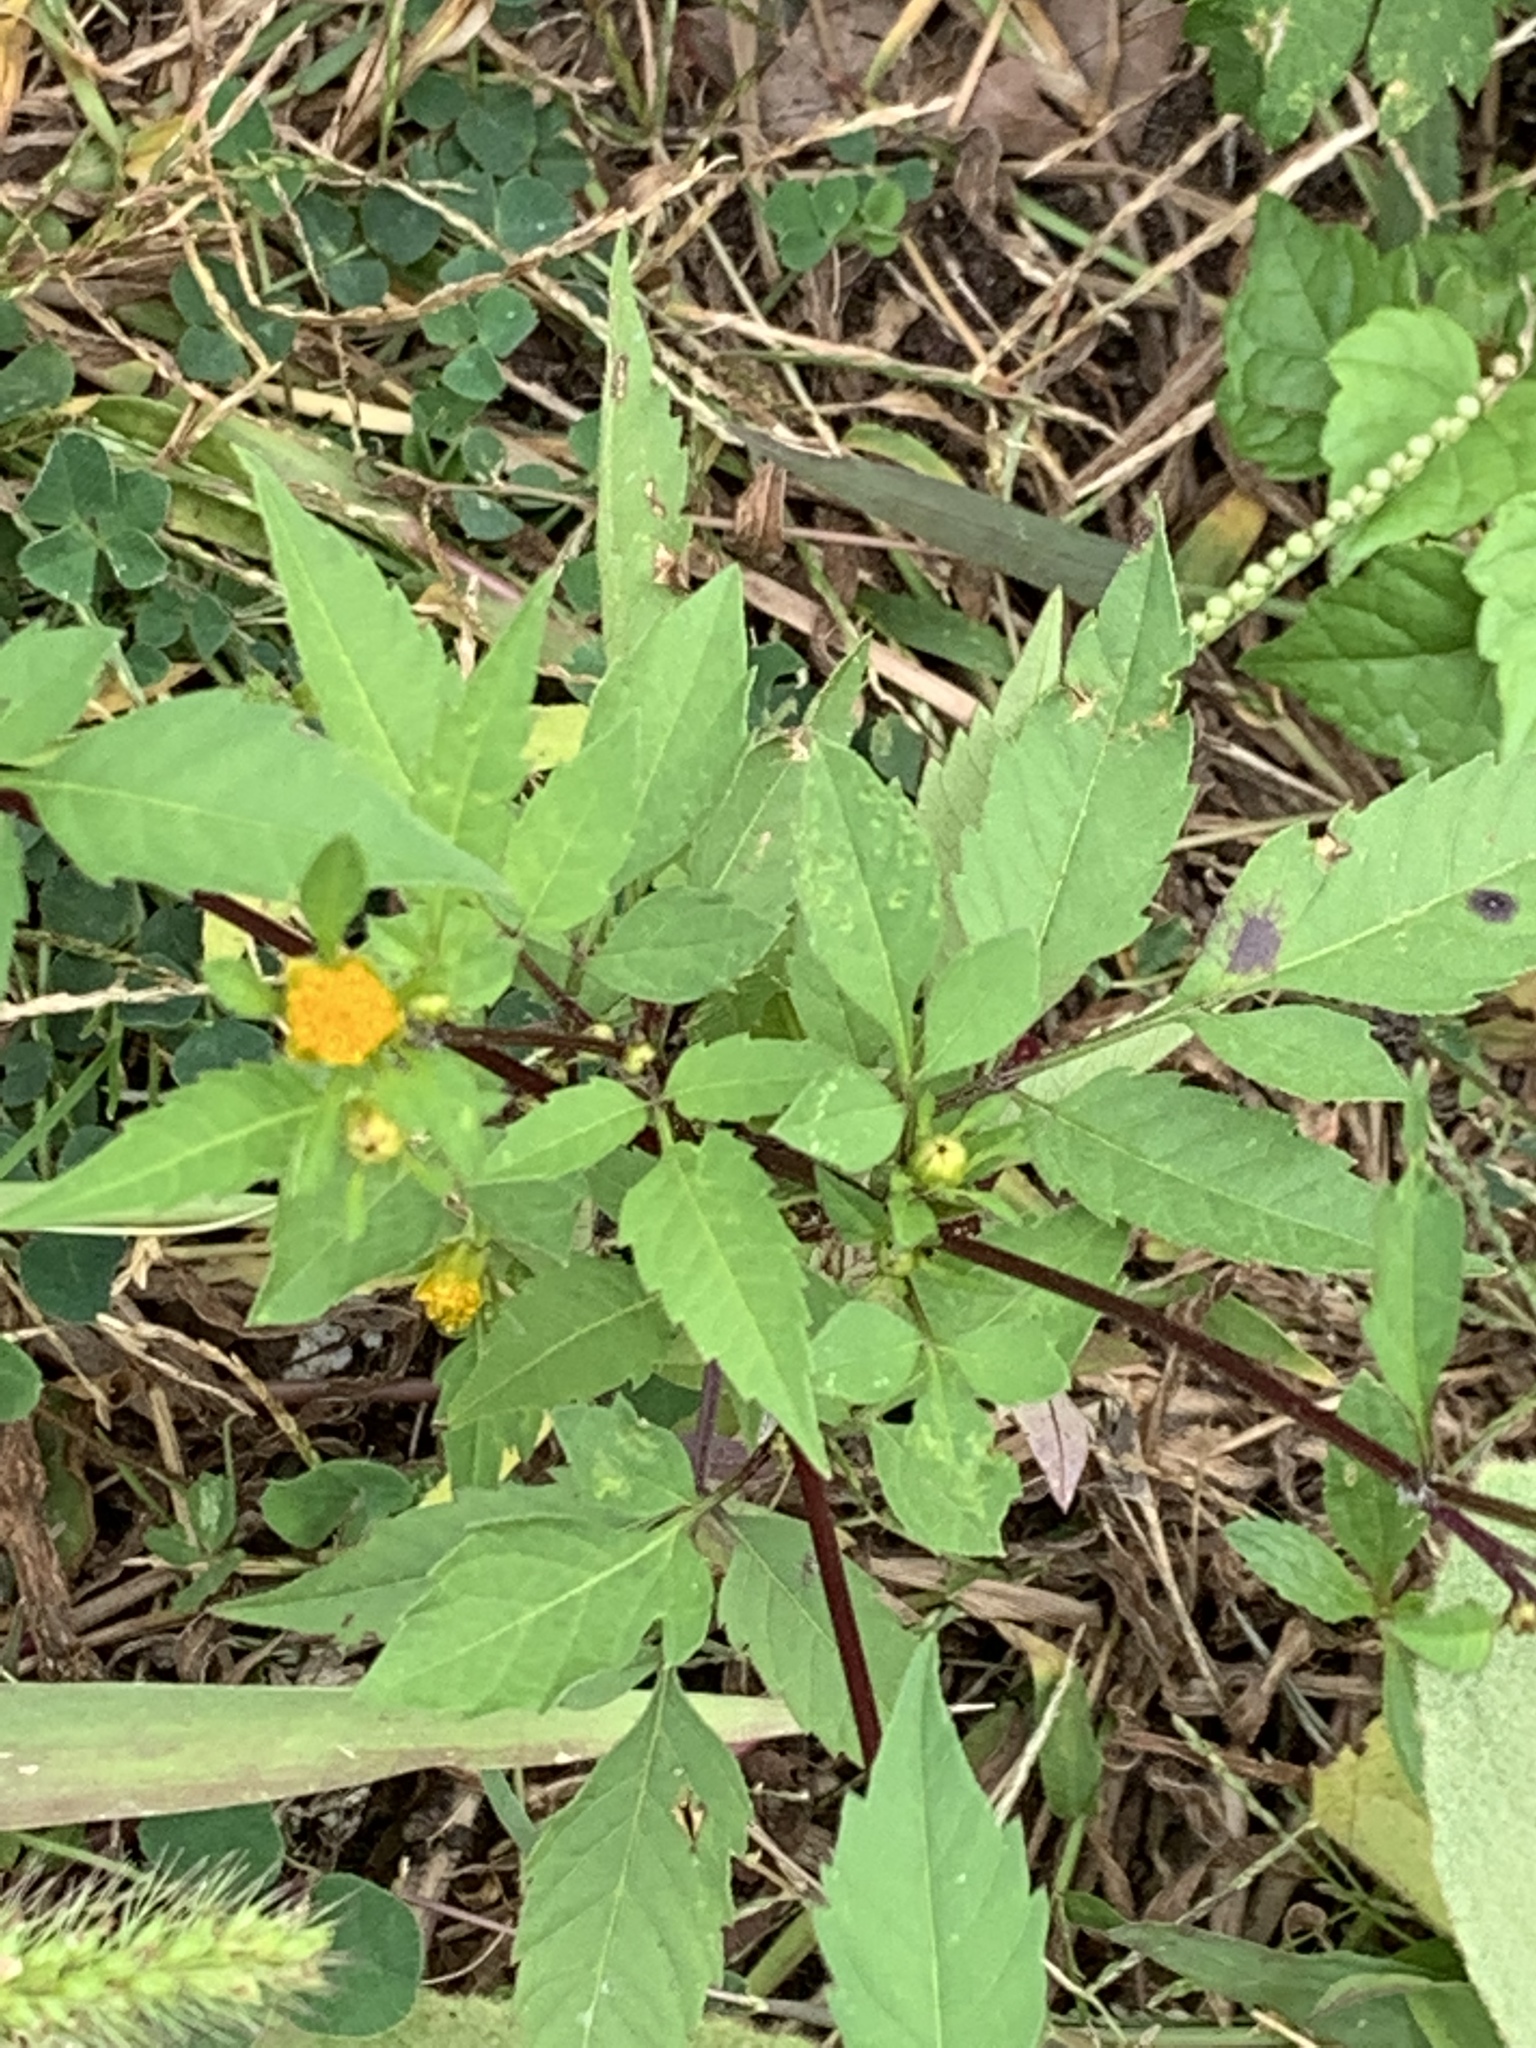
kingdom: Plantae
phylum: Tracheophyta
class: Magnoliopsida
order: Asterales
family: Asteraceae
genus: Bidens
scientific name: Bidens frondosa
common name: Beggarticks
